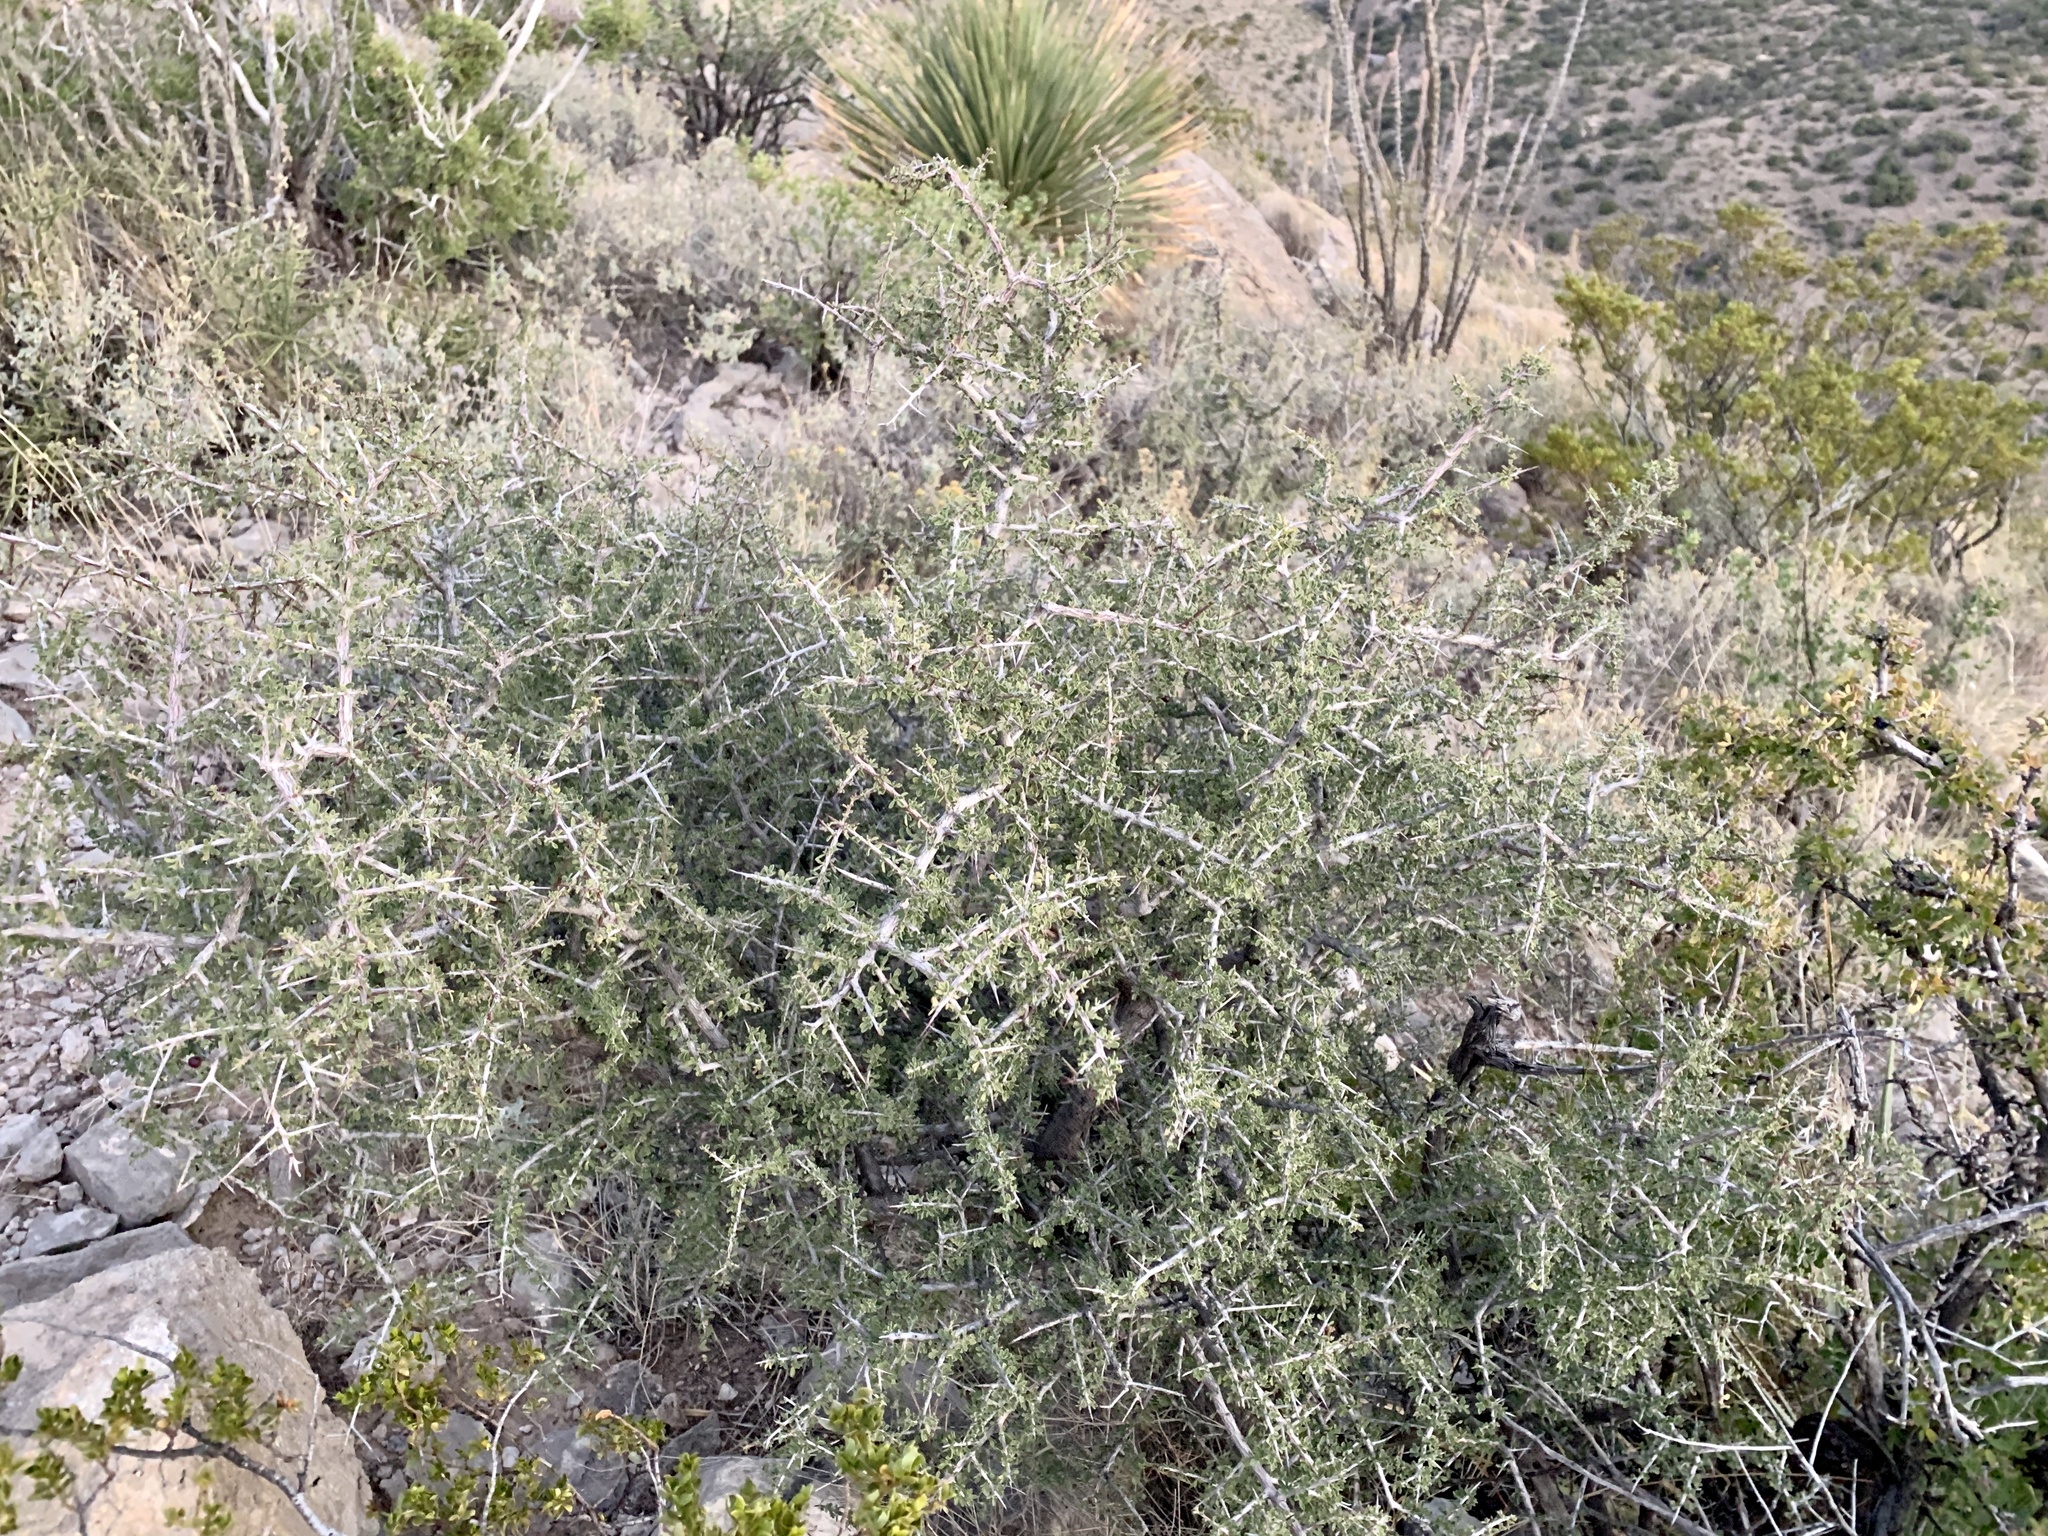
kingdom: Plantae
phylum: Tracheophyta
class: Magnoliopsida
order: Rosales
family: Rhamnaceae
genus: Condalia
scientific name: Condalia warnockii
